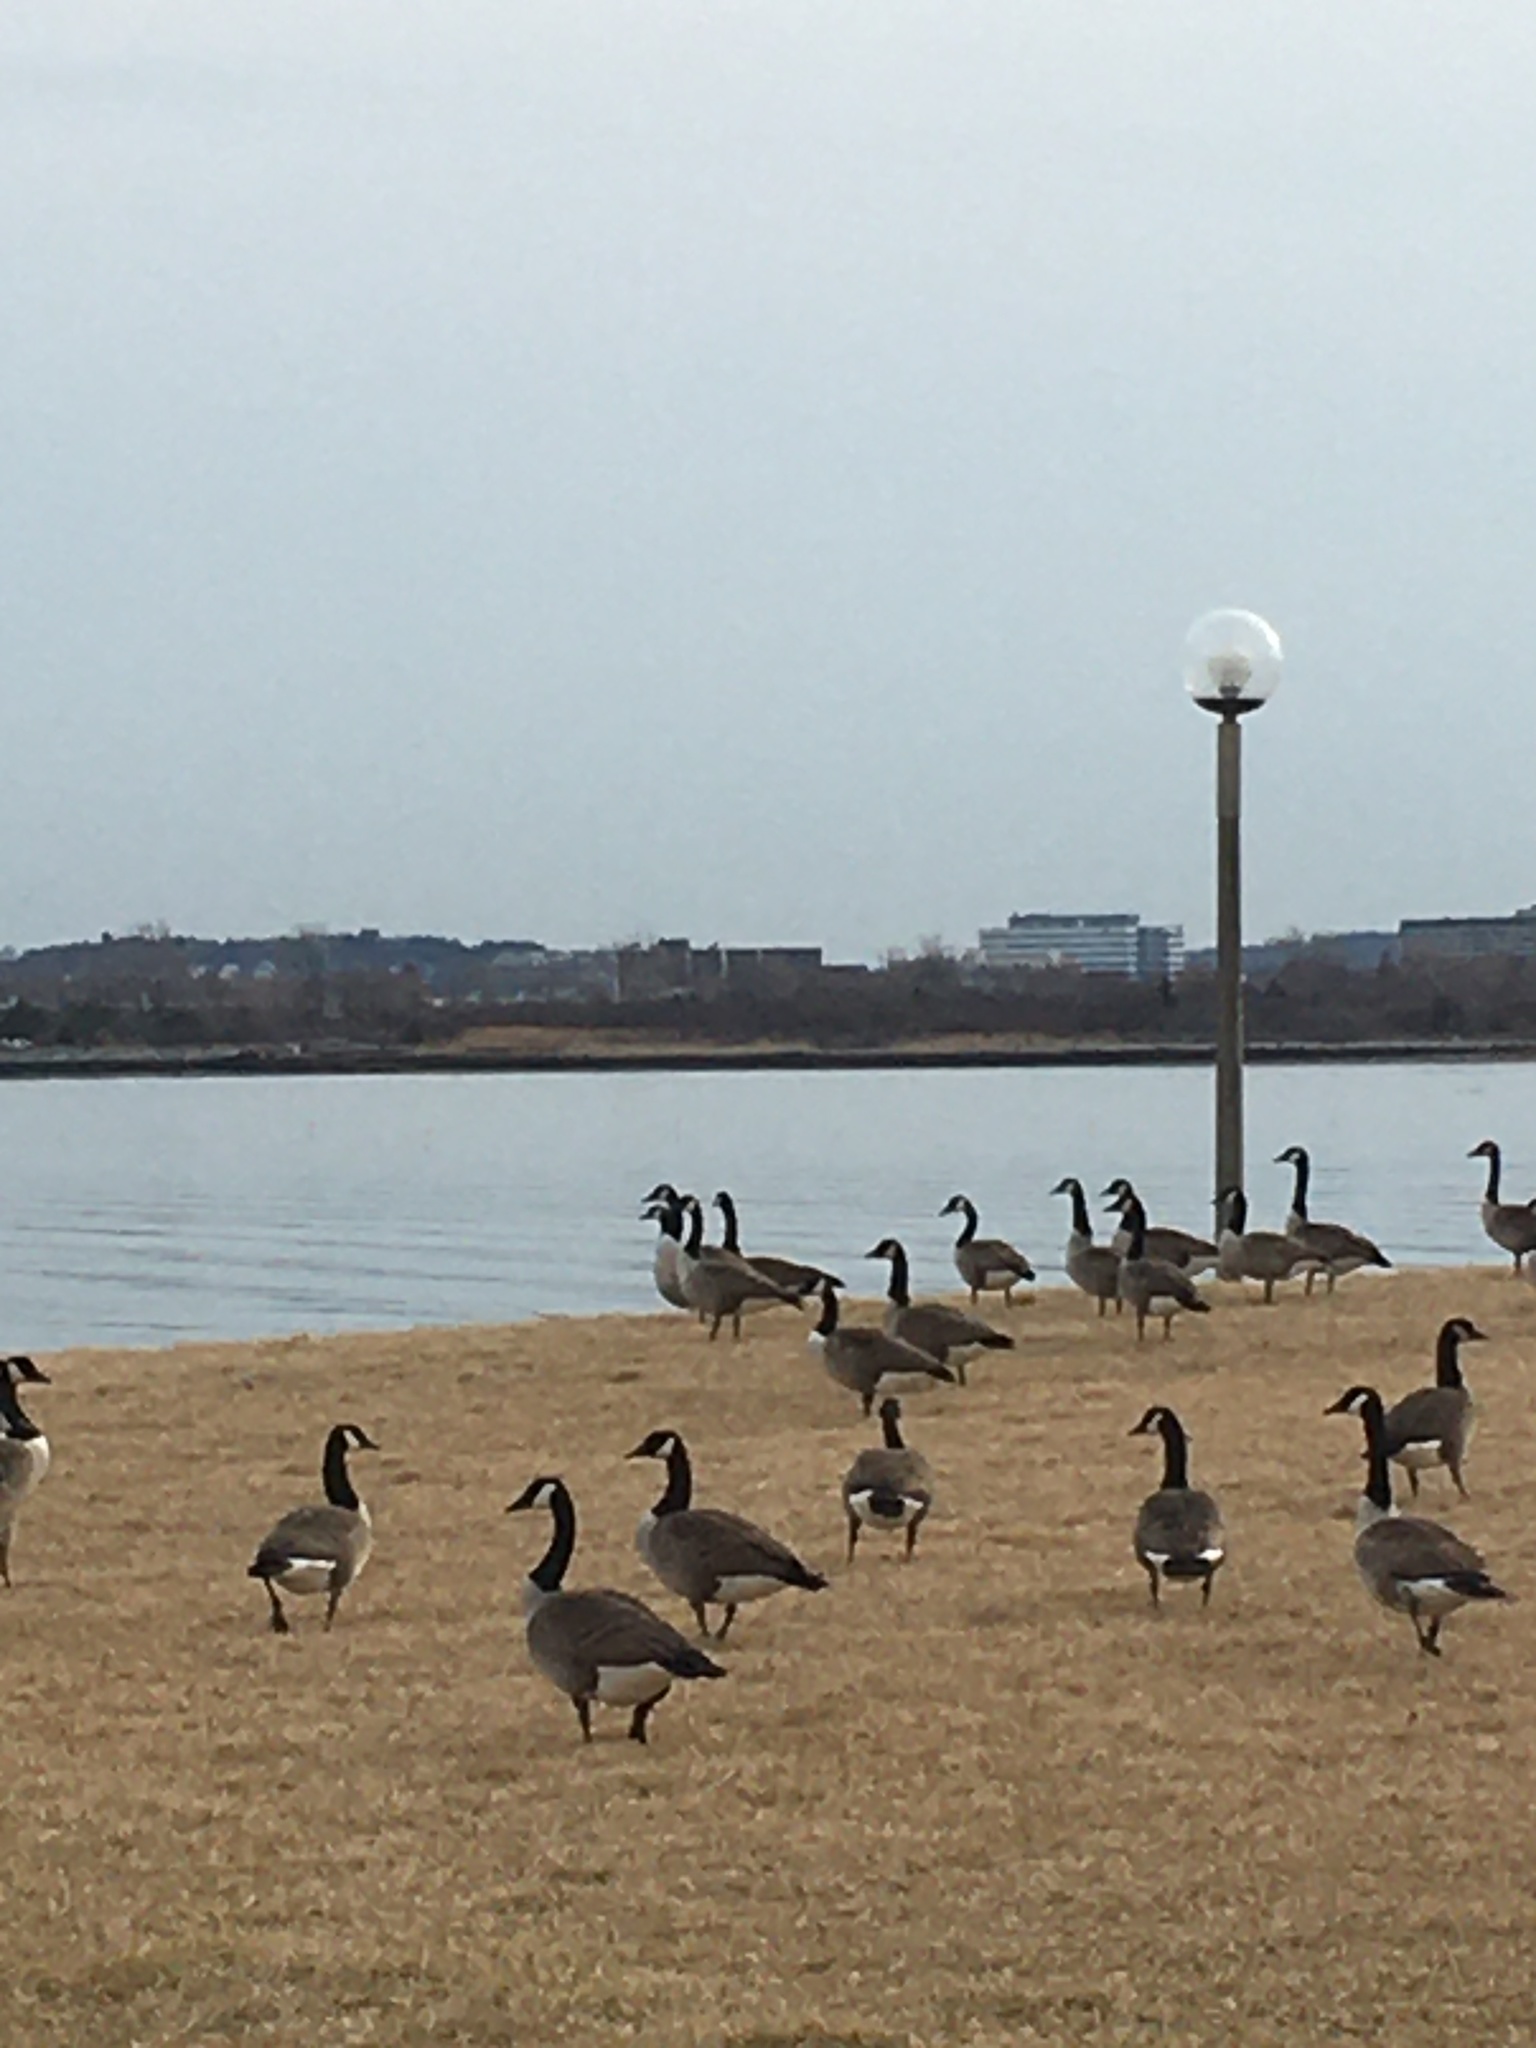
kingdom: Animalia
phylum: Chordata
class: Aves
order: Anseriformes
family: Anatidae
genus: Branta
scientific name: Branta canadensis
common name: Canada goose
